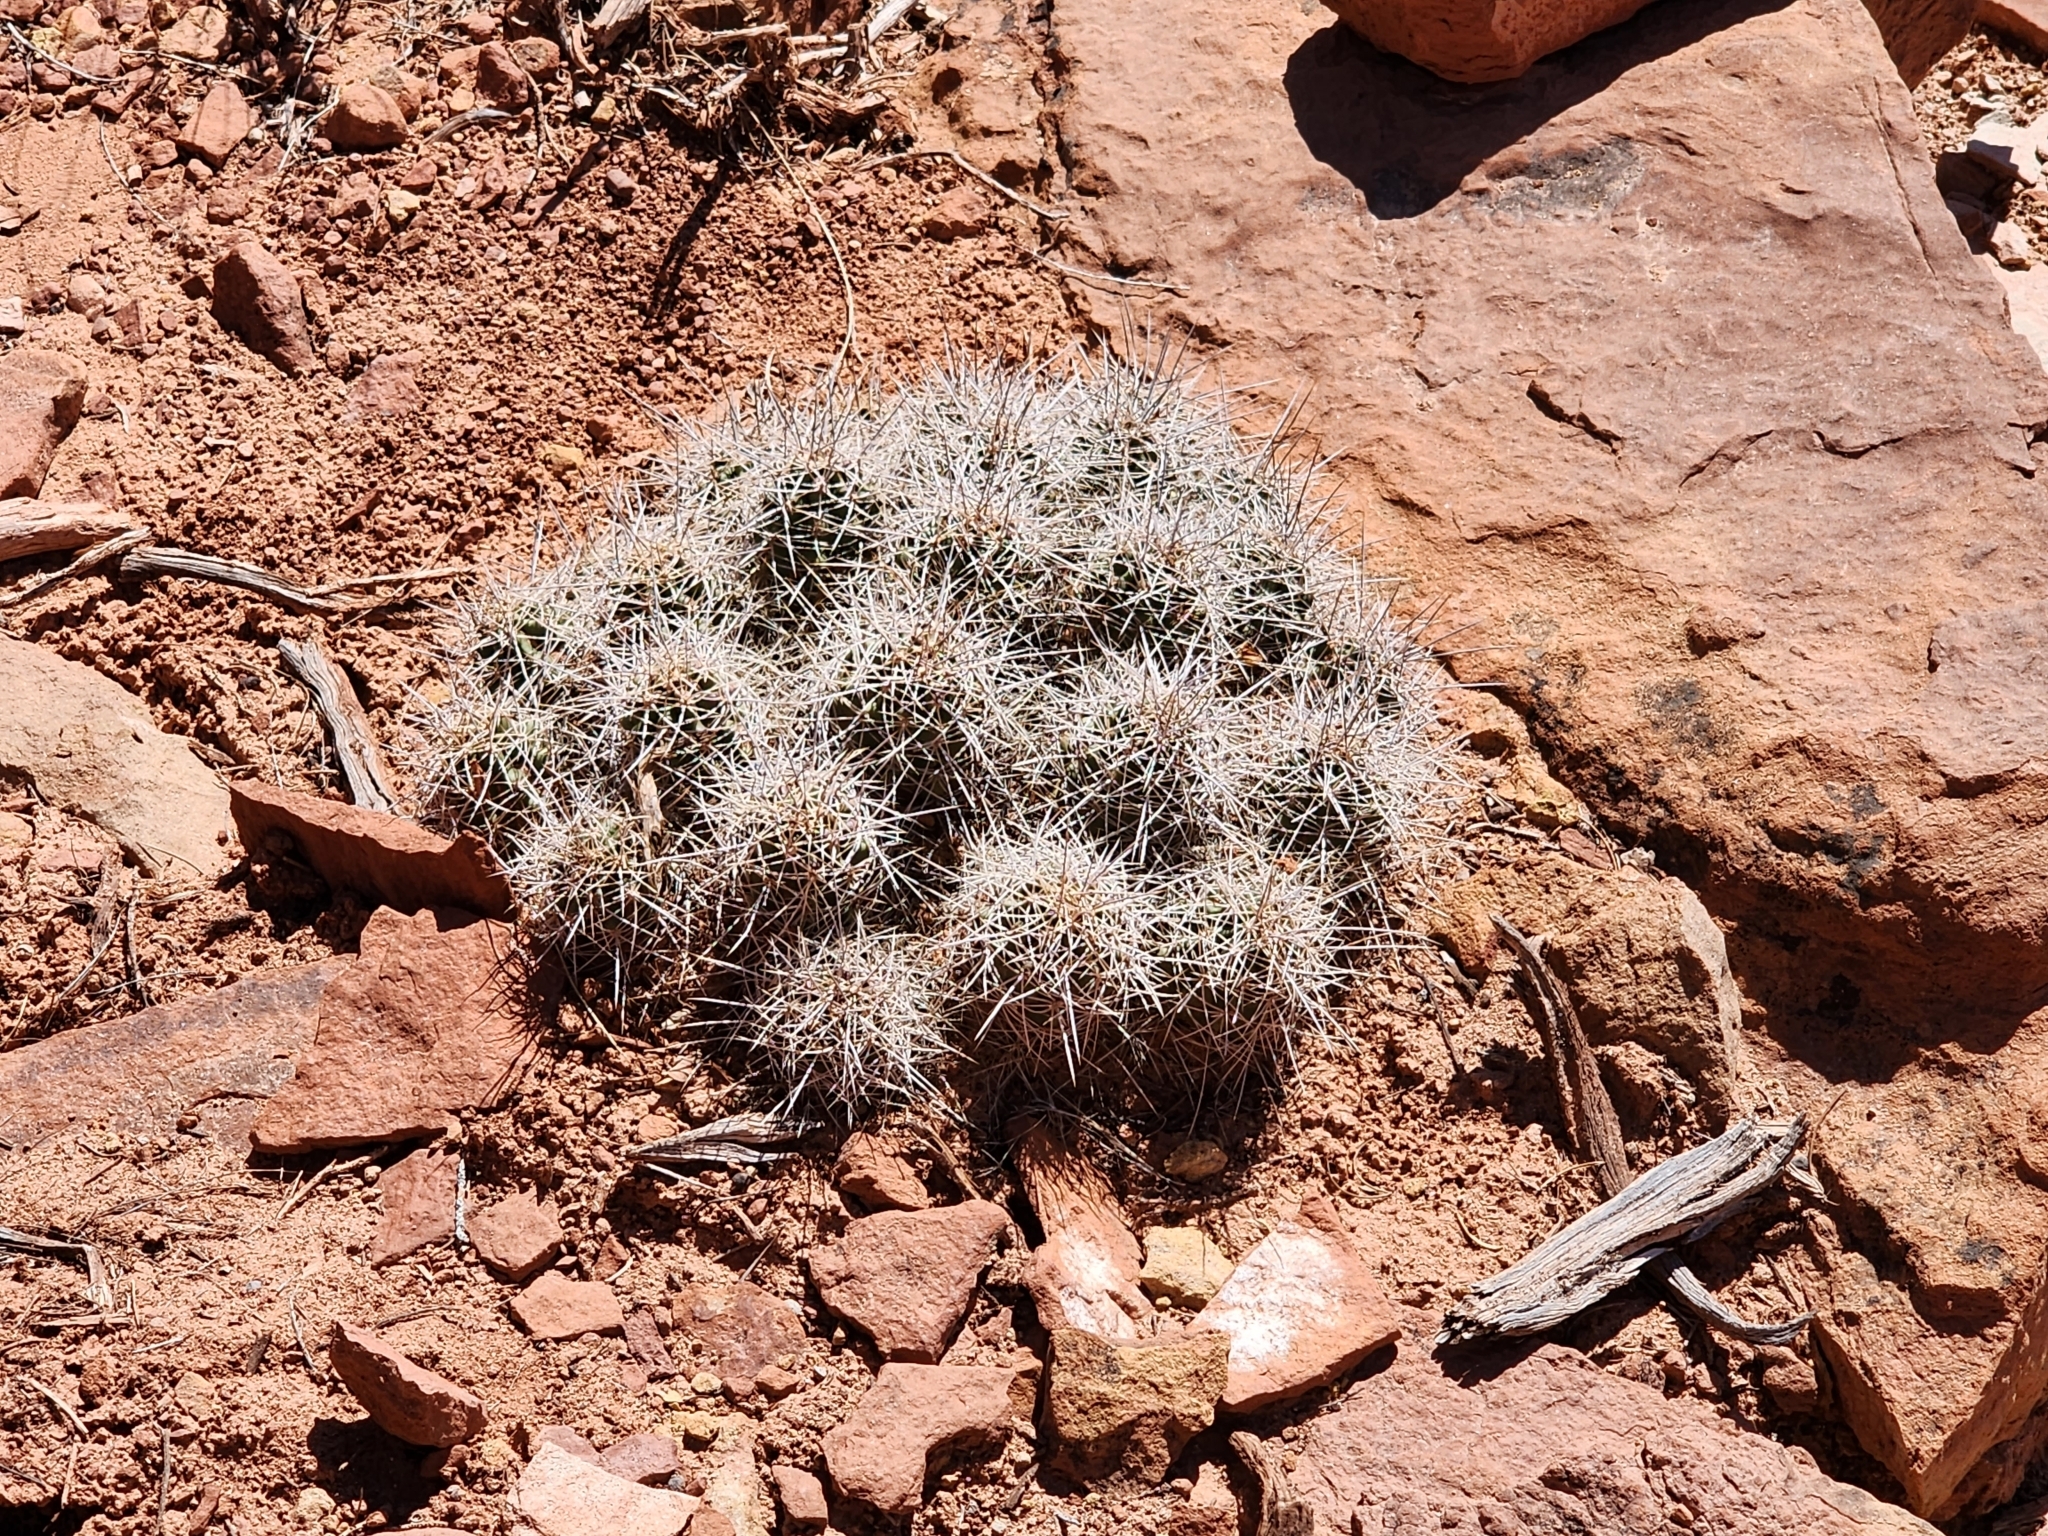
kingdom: Plantae
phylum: Tracheophyta
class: Magnoliopsida
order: Caryophyllales
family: Cactaceae
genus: Echinocereus
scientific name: Echinocereus triglochidiatus
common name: Claretcup hedgehog
